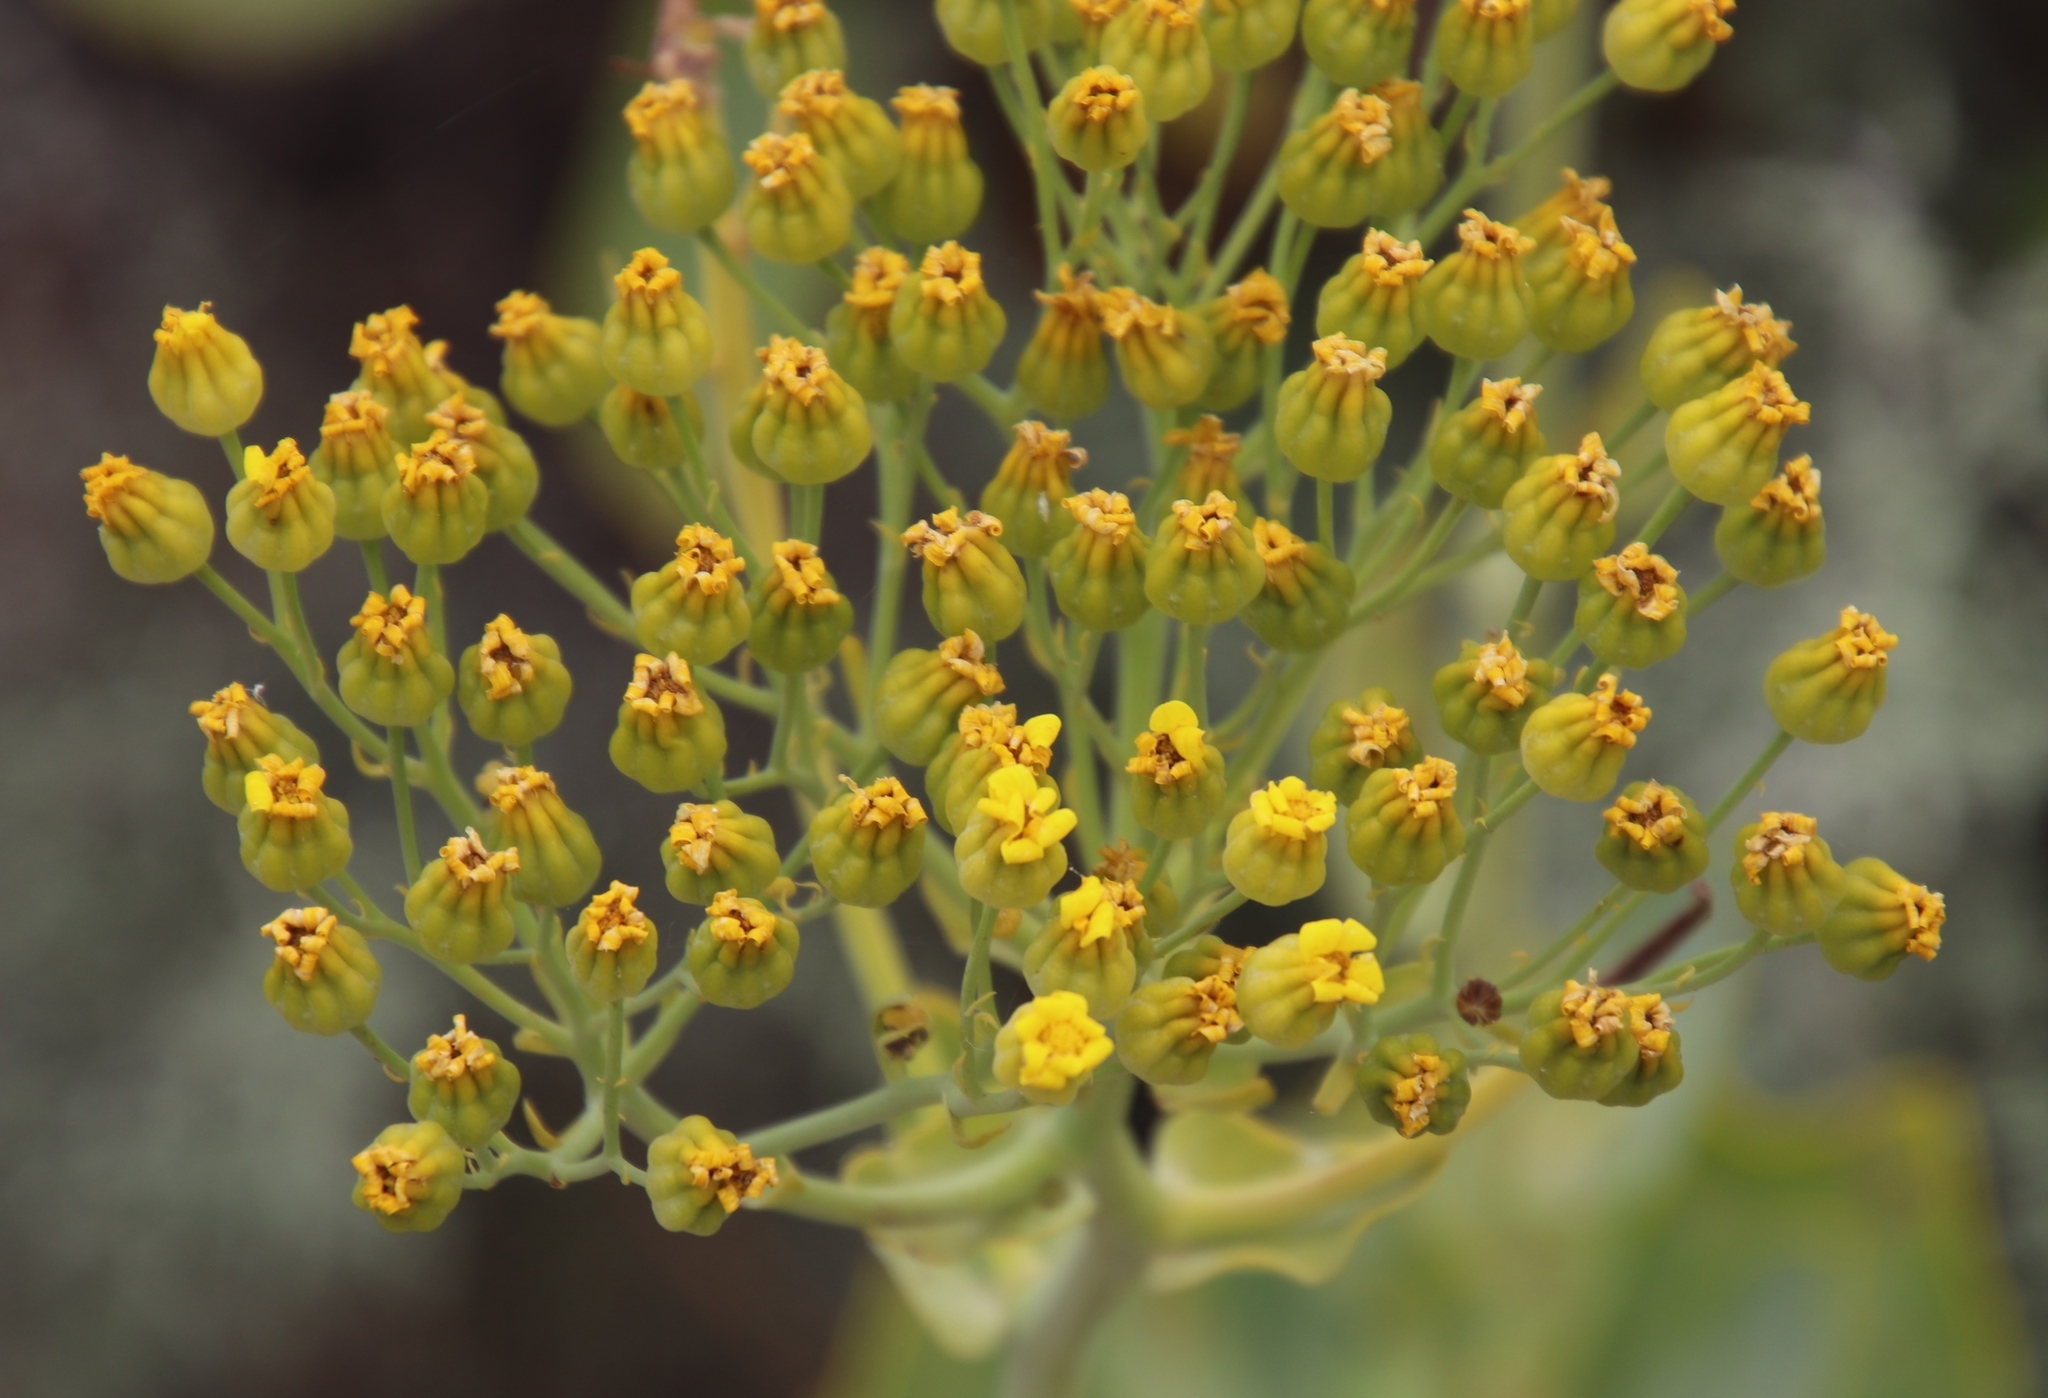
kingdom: Plantae
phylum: Tracheophyta
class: Magnoliopsida
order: Asterales
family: Asteraceae
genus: Othonna
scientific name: Othonna parviflora
